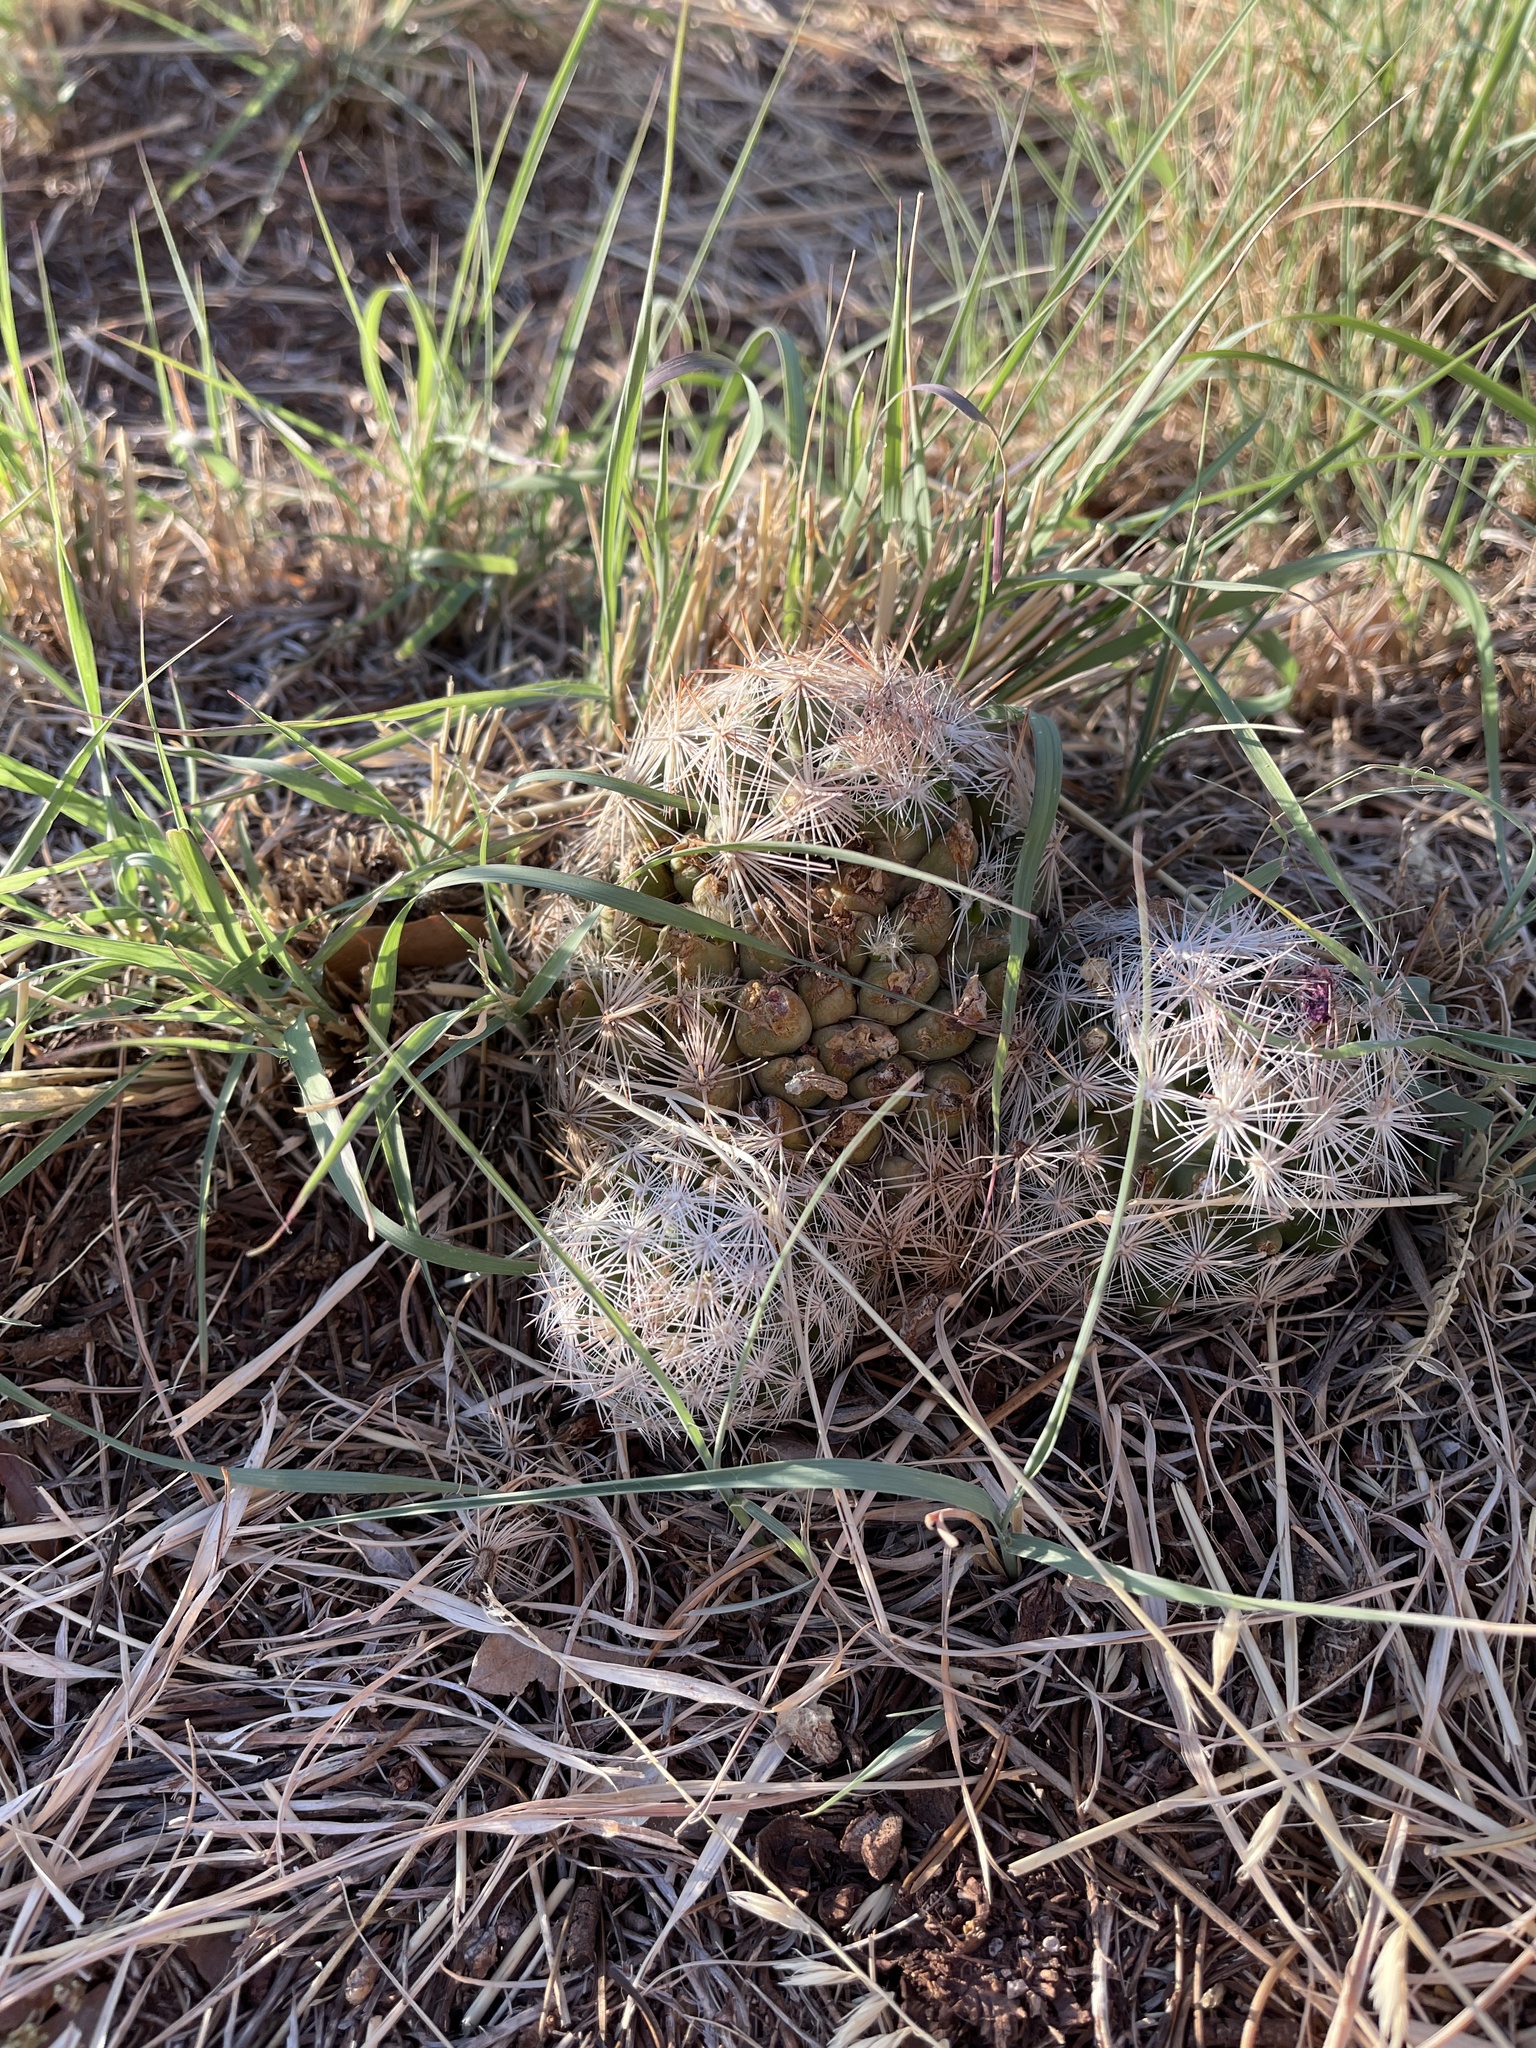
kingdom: Plantae
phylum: Tracheophyta
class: Magnoliopsida
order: Caryophyllales
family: Cactaceae
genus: Pelecyphora
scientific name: Pelecyphora vivipara
